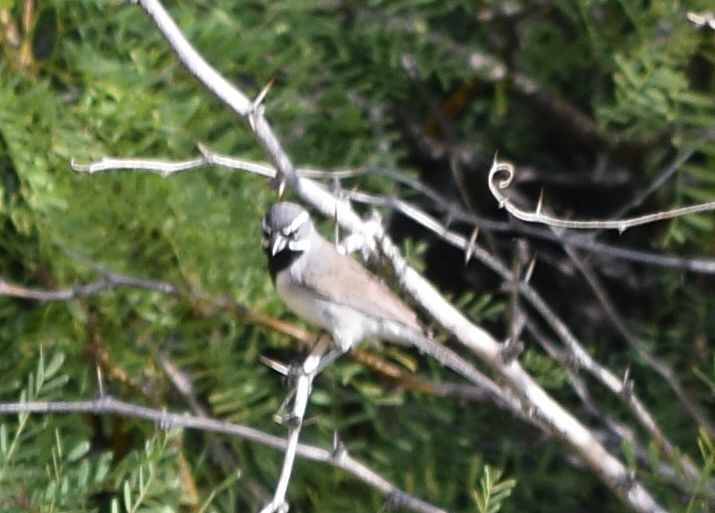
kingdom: Animalia
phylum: Chordata
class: Aves
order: Passeriformes
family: Passerellidae
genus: Amphispiza
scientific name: Amphispiza bilineata
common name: Black-throated sparrow
